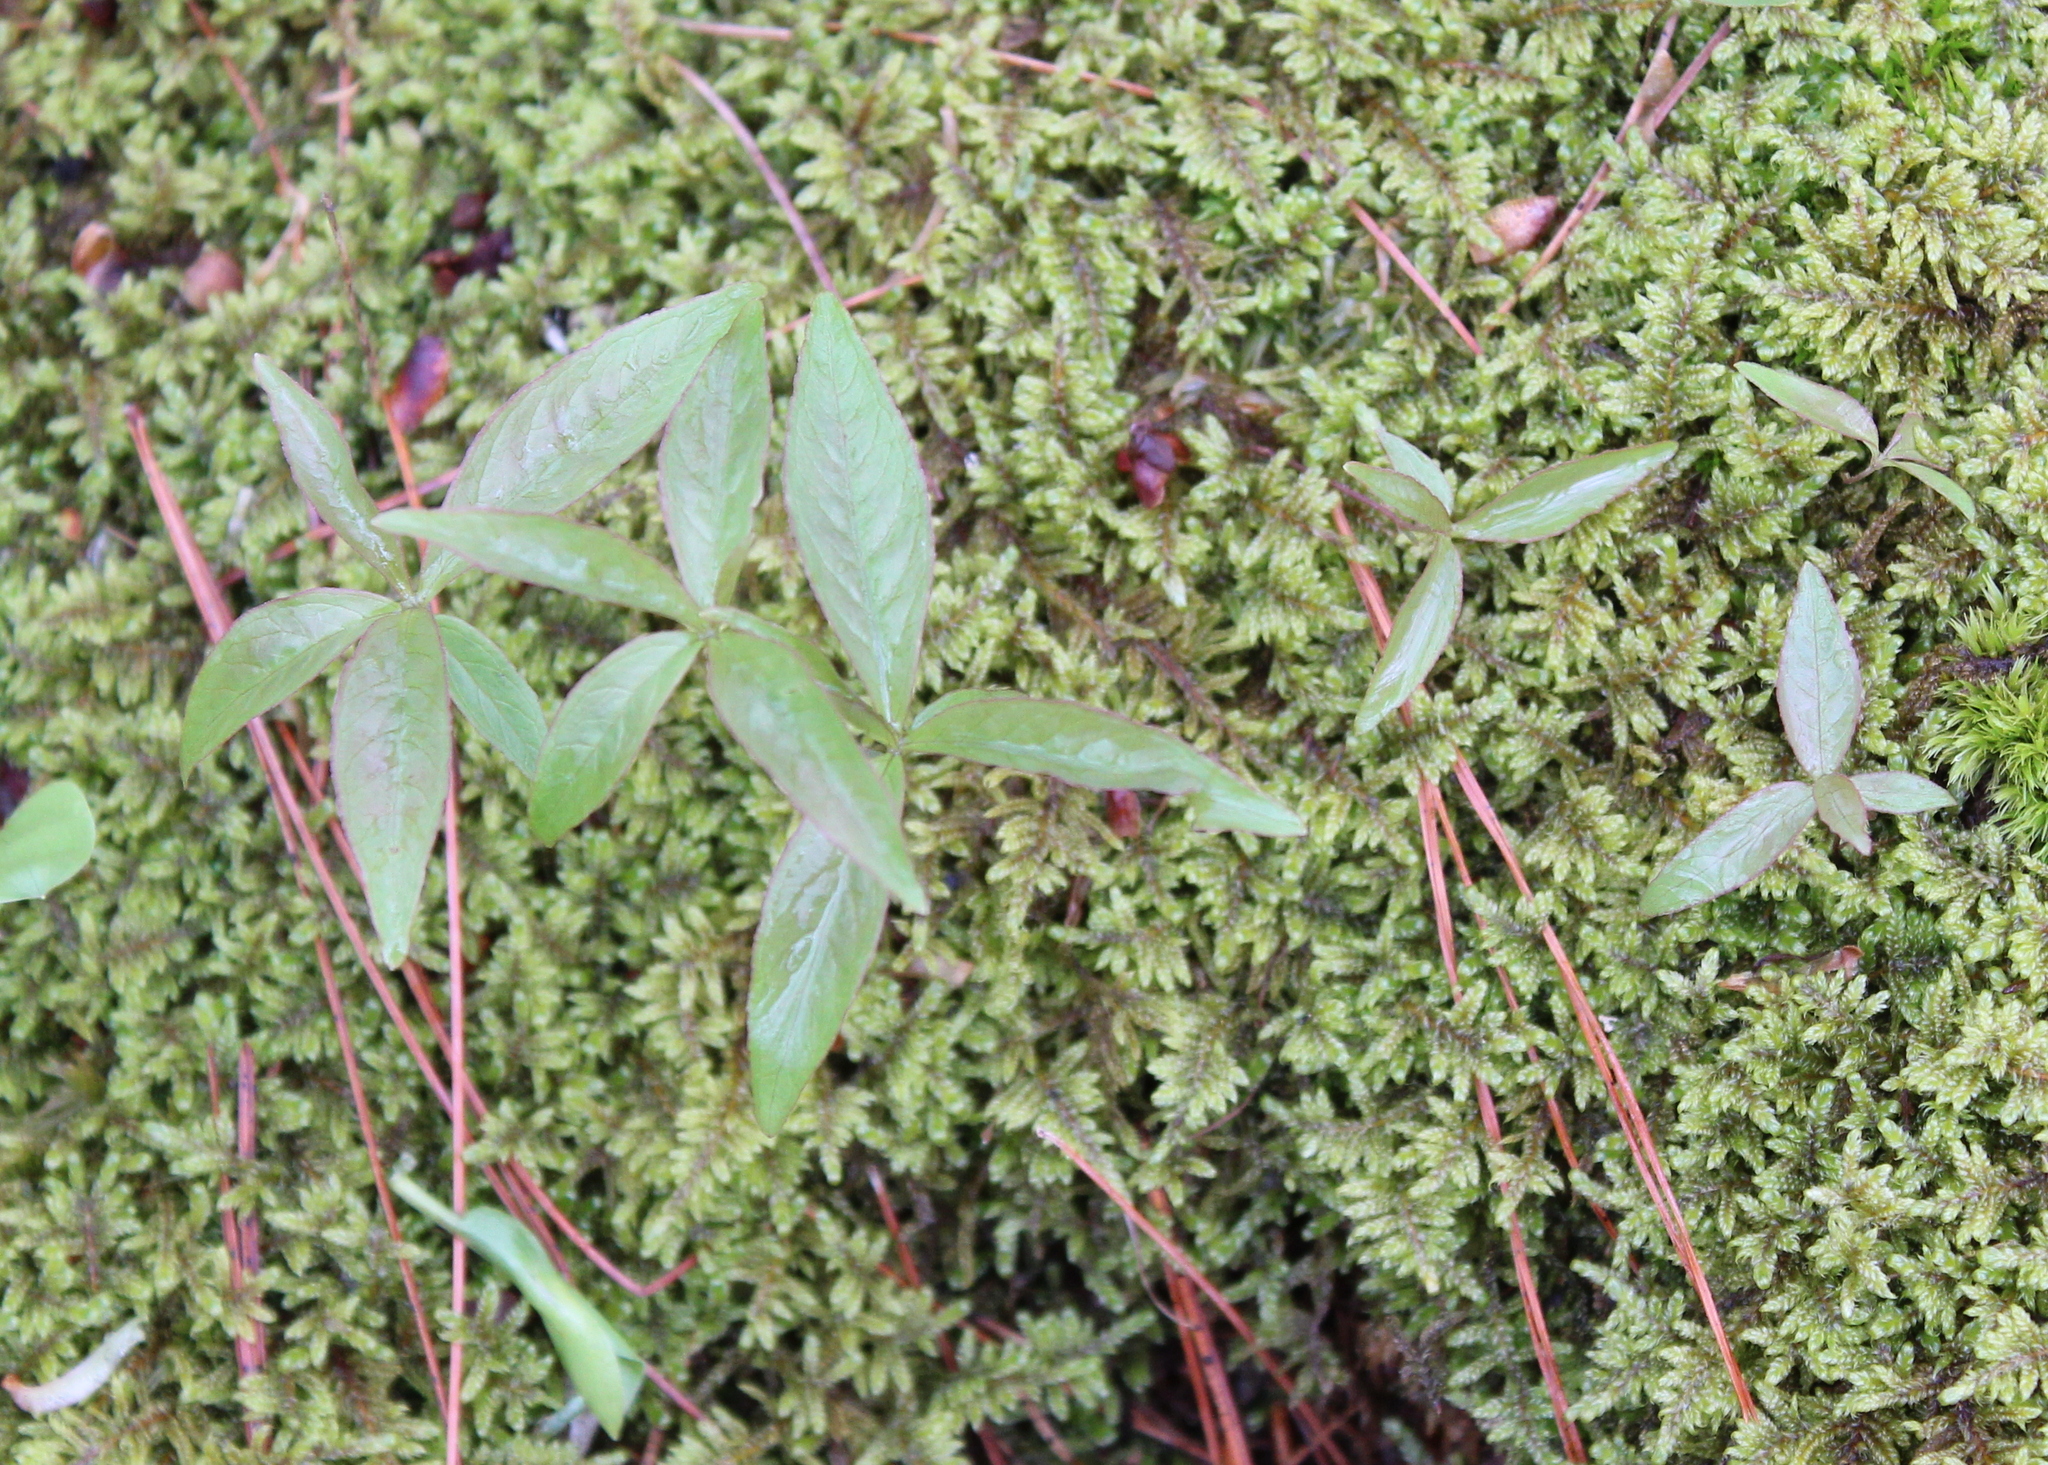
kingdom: Plantae
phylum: Tracheophyta
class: Magnoliopsida
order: Ericales
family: Primulaceae
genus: Lysimachia
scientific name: Lysimachia borealis
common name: American starflower
